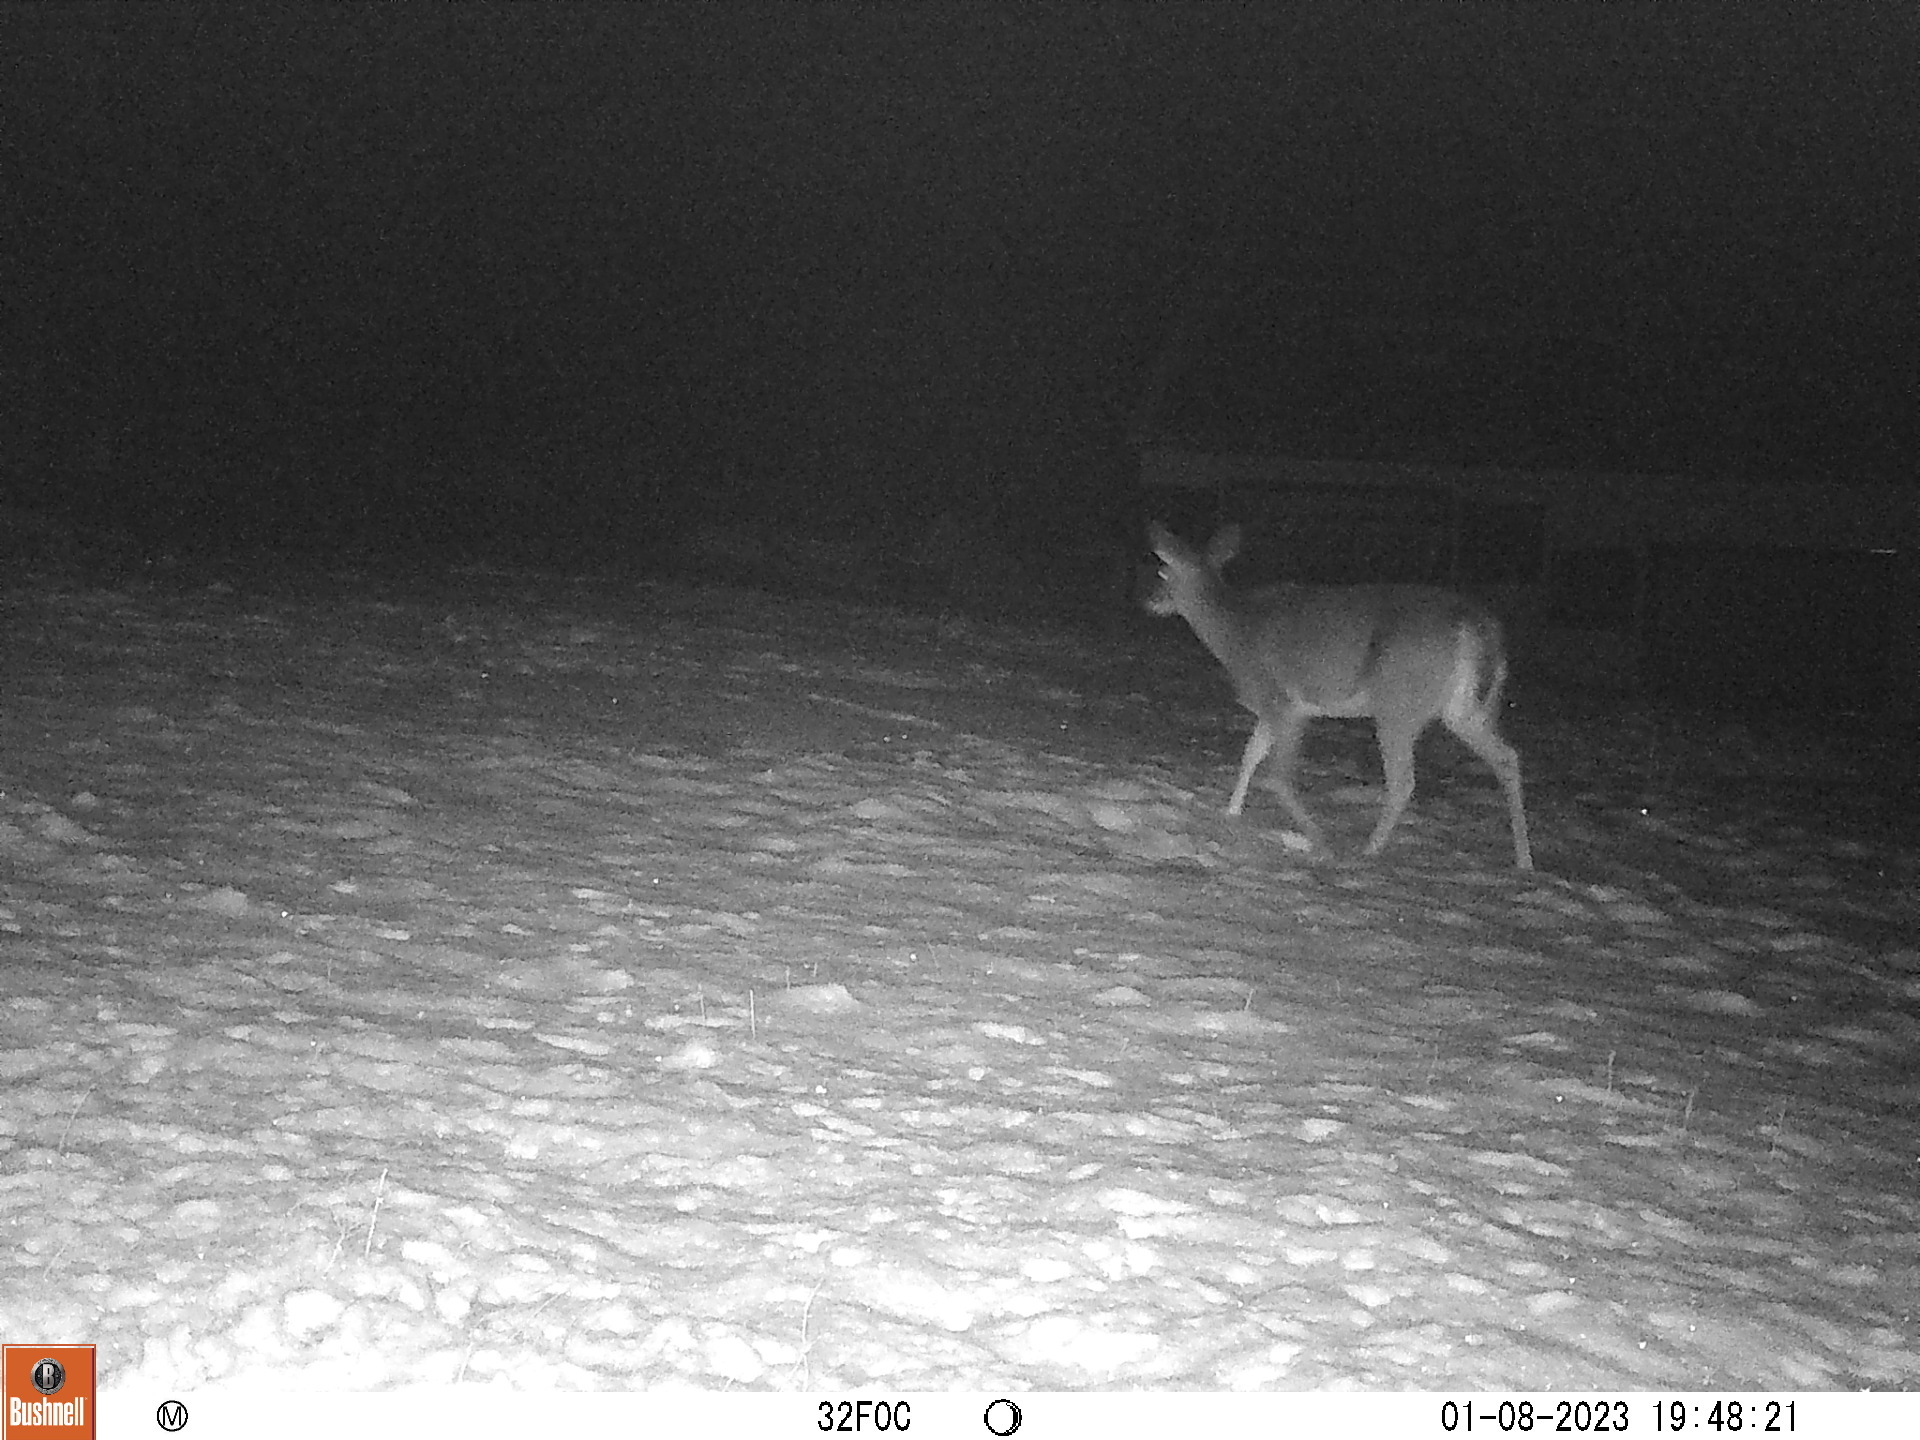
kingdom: Animalia
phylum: Chordata
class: Mammalia
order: Artiodactyla
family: Cervidae
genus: Odocoileus
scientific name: Odocoileus virginianus
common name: White-tailed deer
